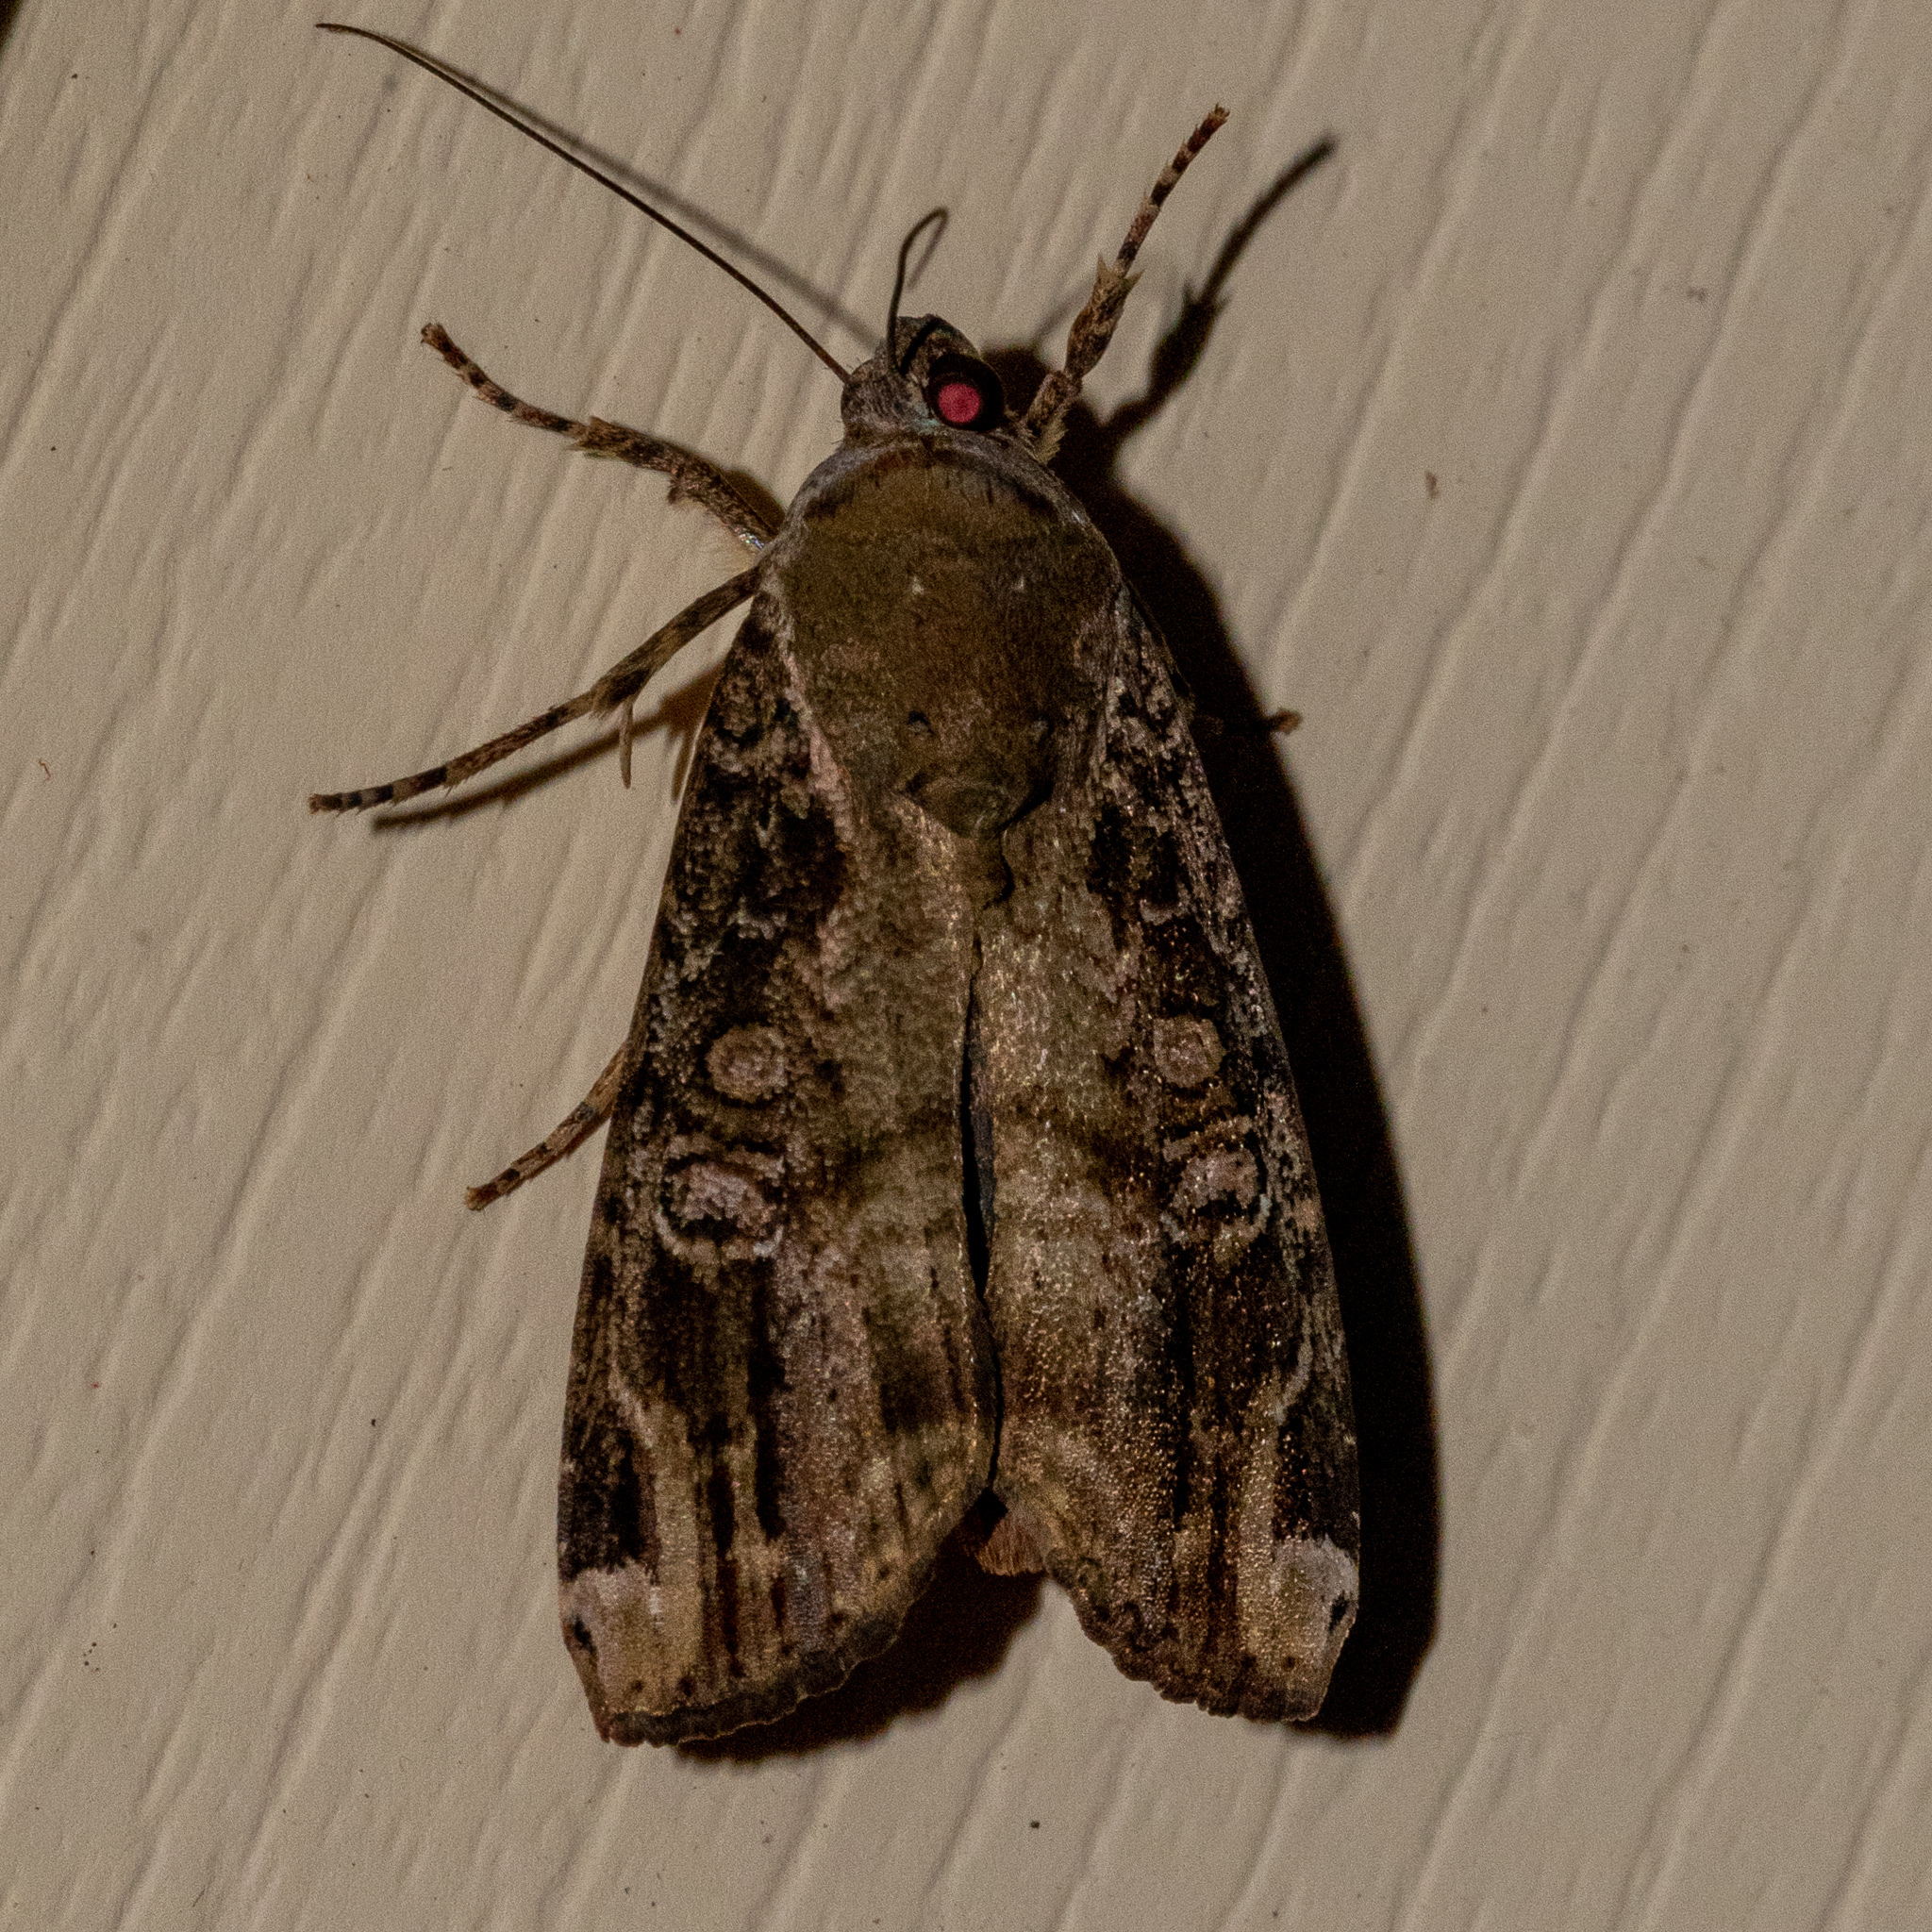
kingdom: Animalia
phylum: Arthropoda
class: Insecta
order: Lepidoptera
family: Noctuidae
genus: Magusa
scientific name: Magusa divaricata
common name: Orb narrow-winged moth
